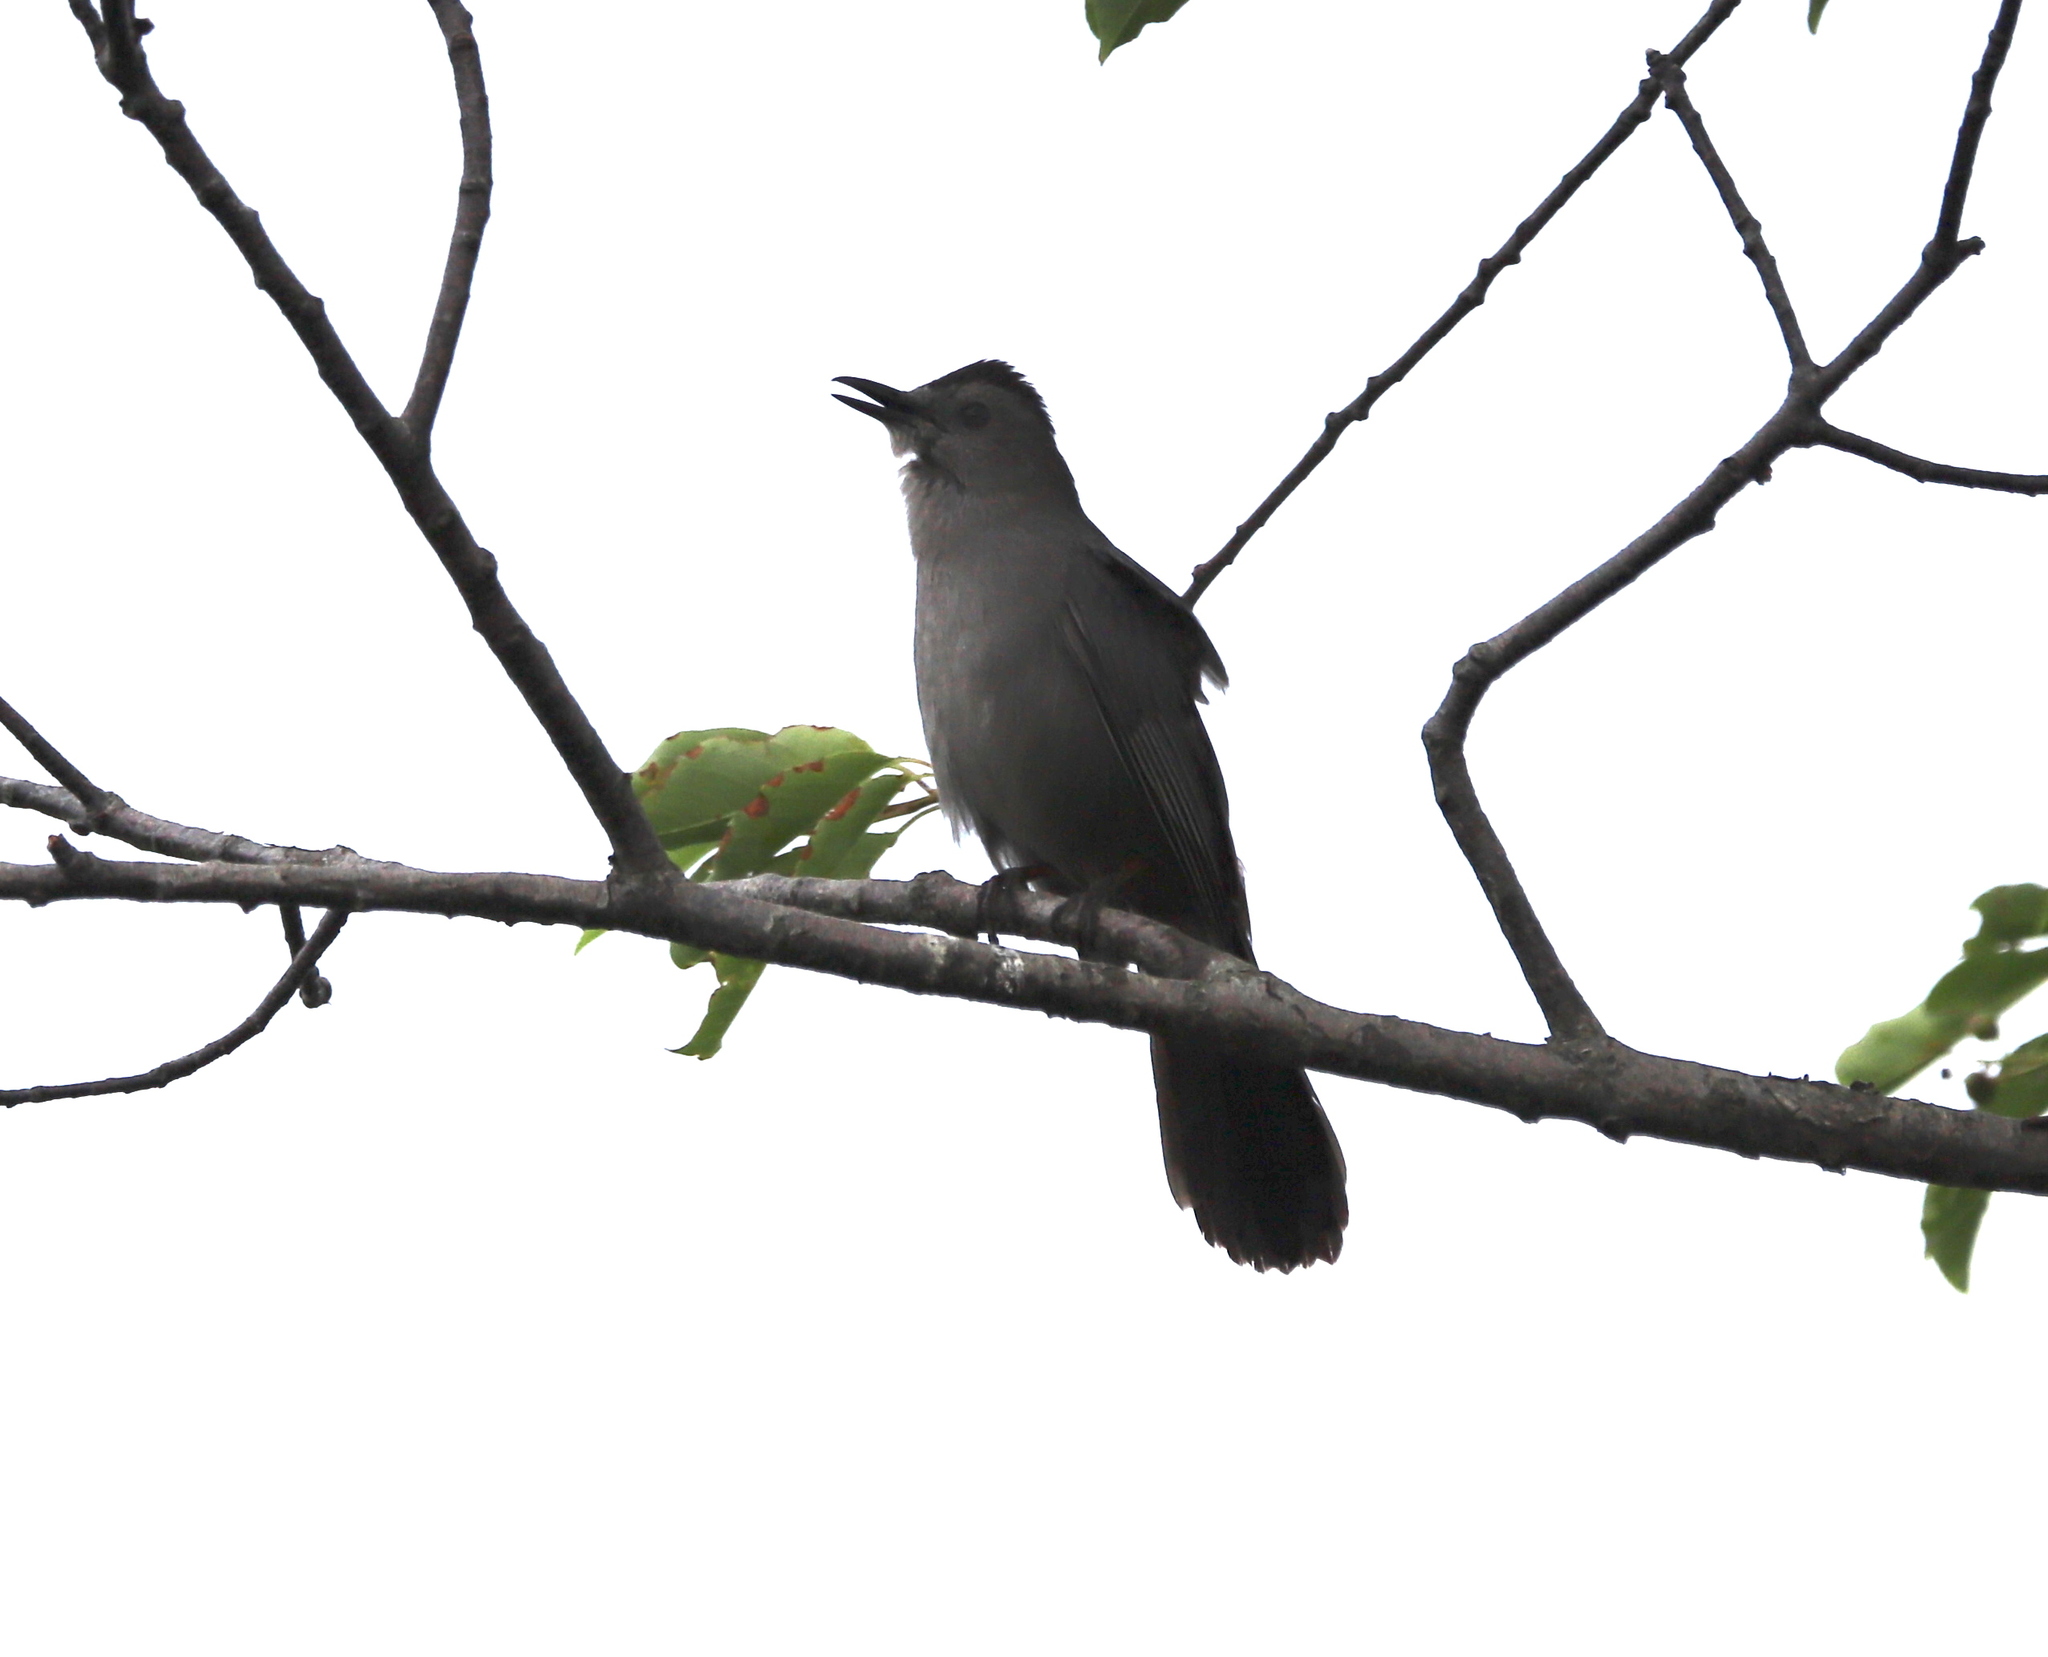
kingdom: Animalia
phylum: Chordata
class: Aves
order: Passeriformes
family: Mimidae
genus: Dumetella
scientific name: Dumetella carolinensis
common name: Gray catbird
